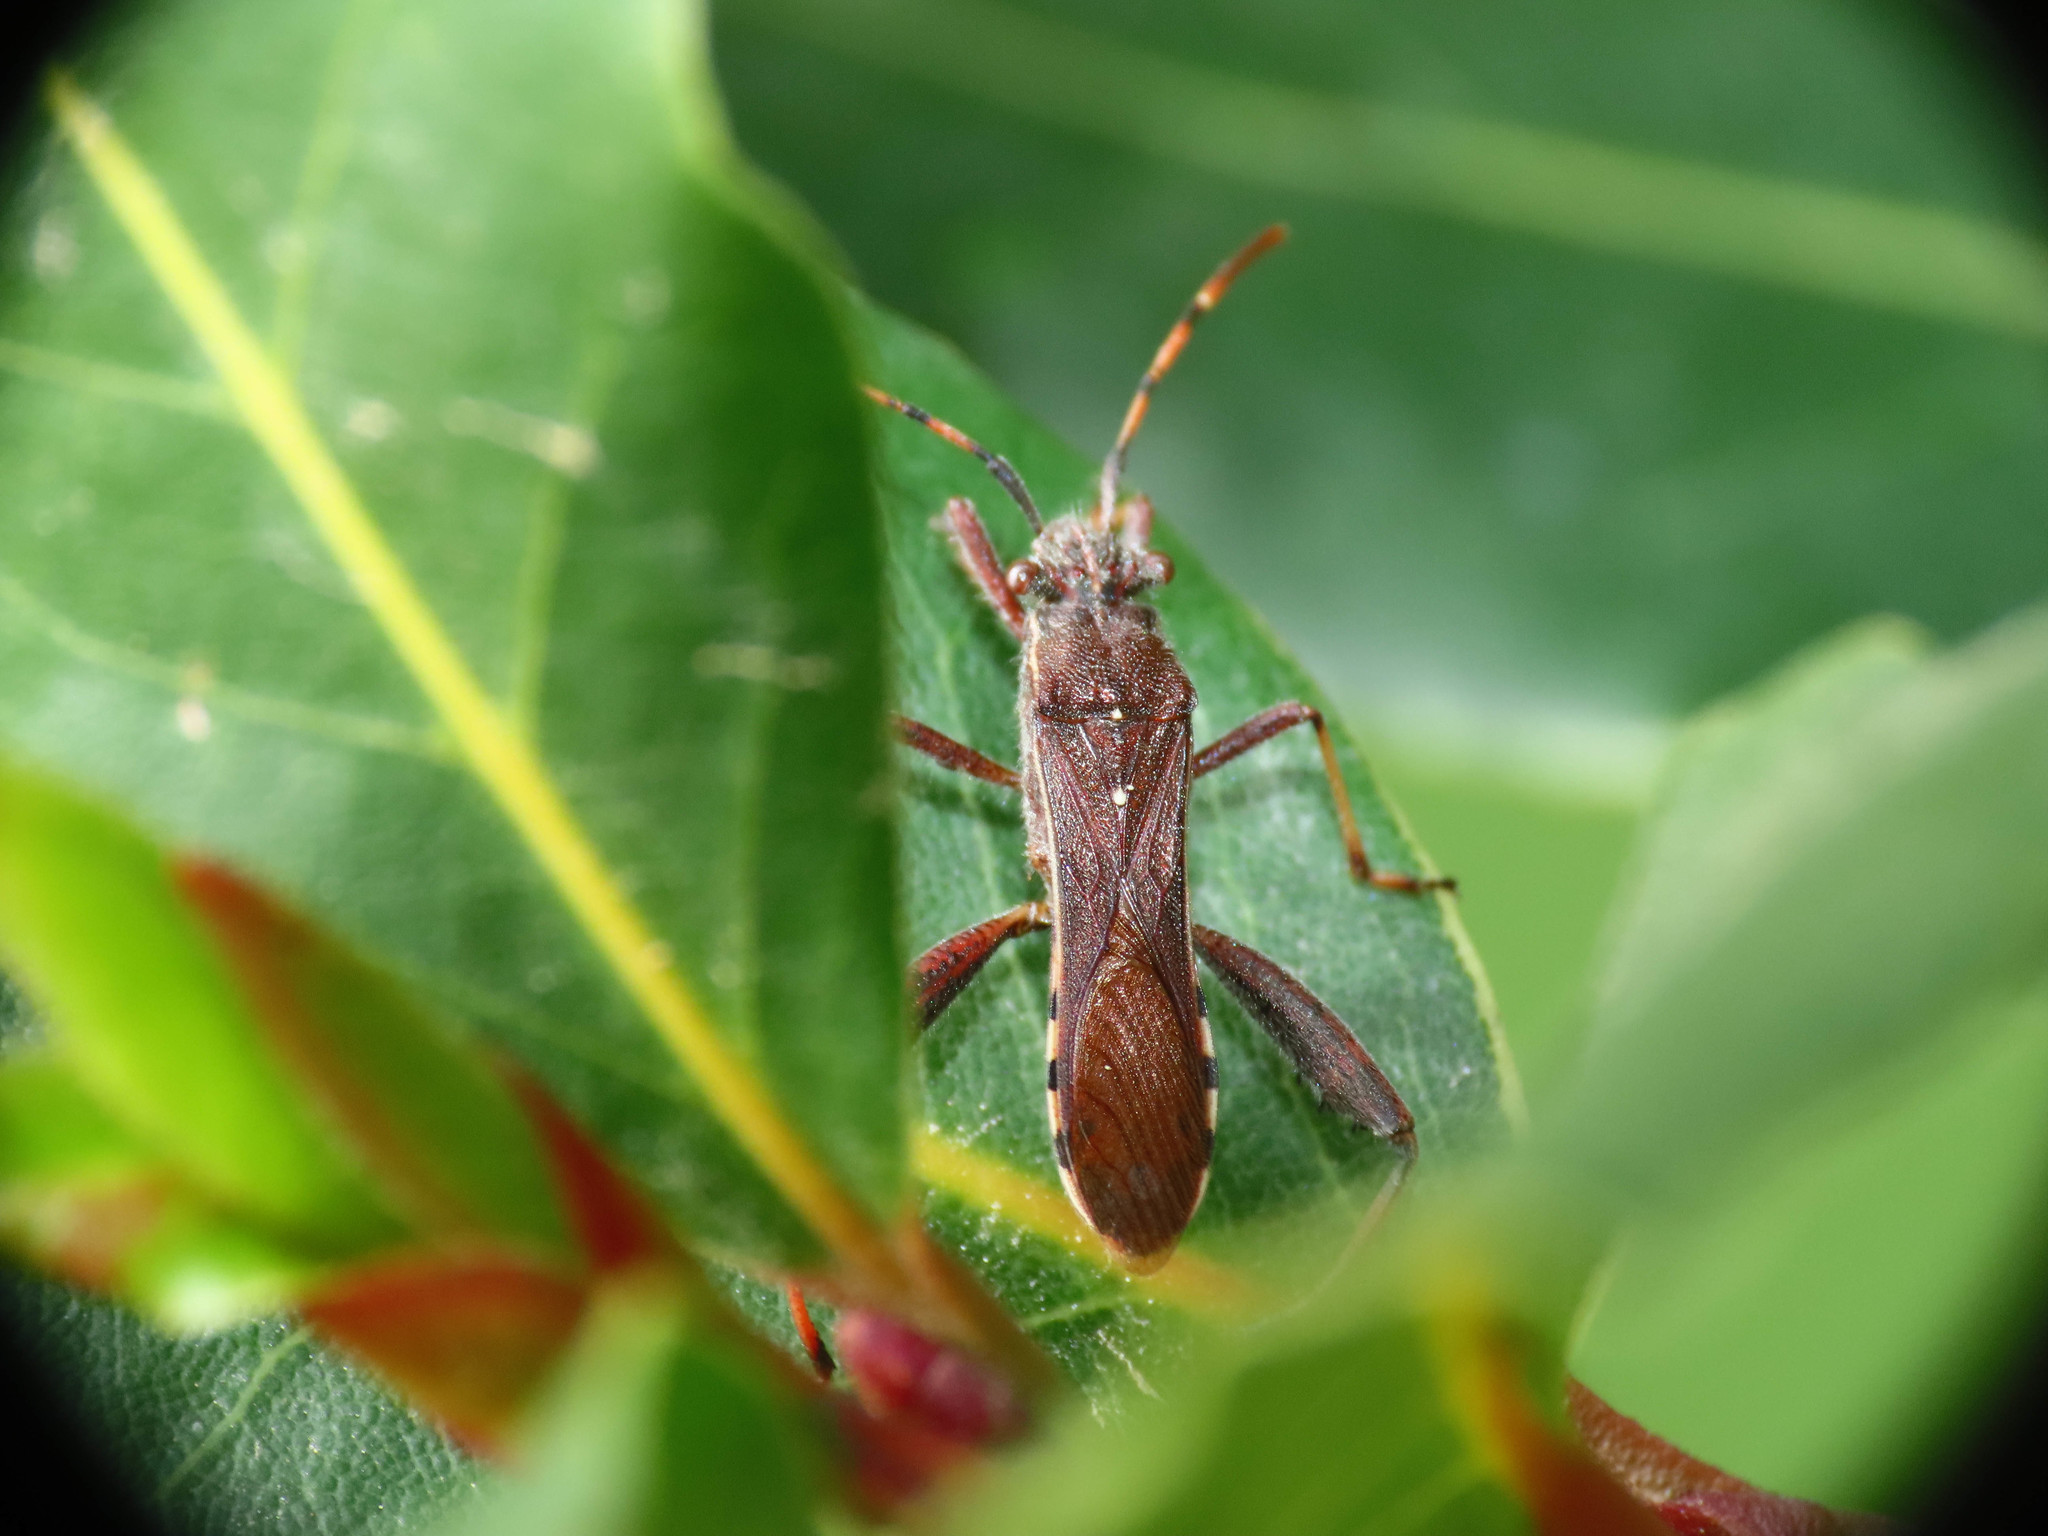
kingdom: Animalia
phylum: Arthropoda
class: Insecta
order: Hemiptera
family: Alydidae
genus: Camptopus
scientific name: Camptopus lateralis
